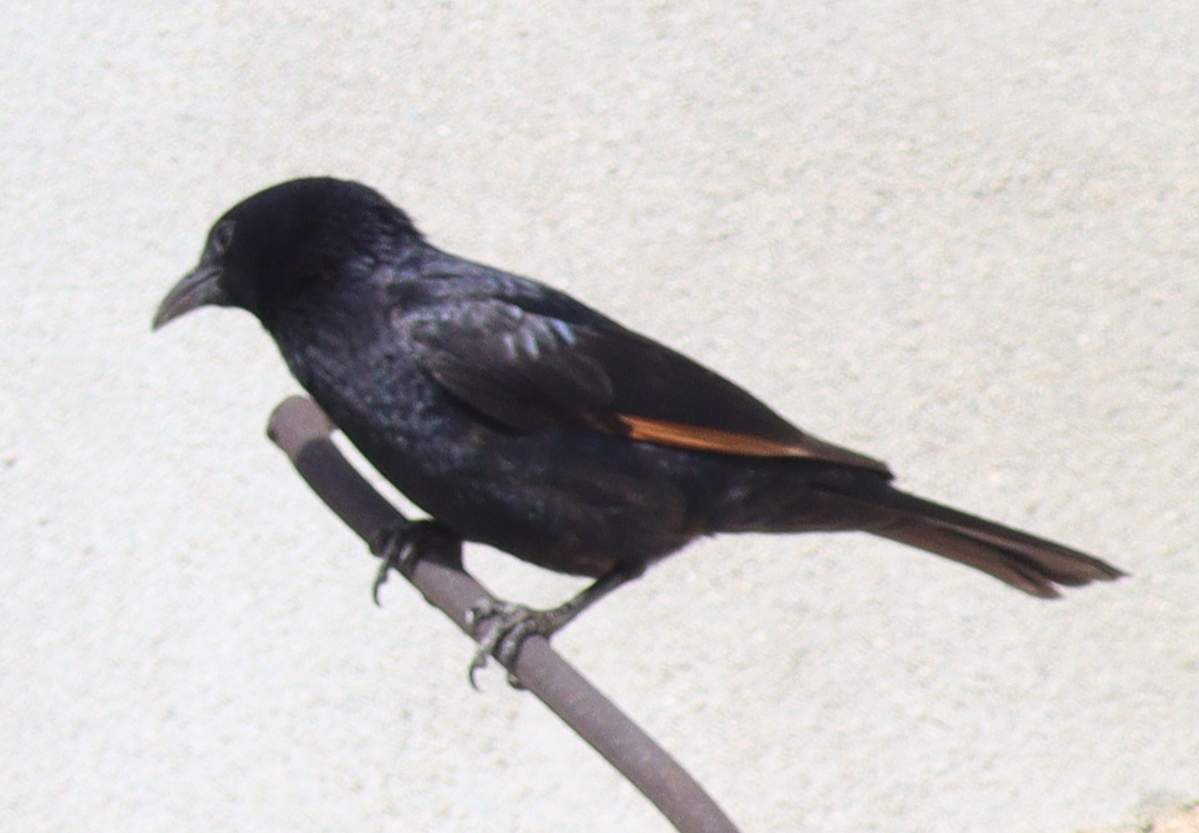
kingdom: Animalia
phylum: Chordata
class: Aves
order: Passeriformes
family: Sturnidae
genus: Onychognathus
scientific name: Onychognathus tristramii
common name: Tristram's starling
